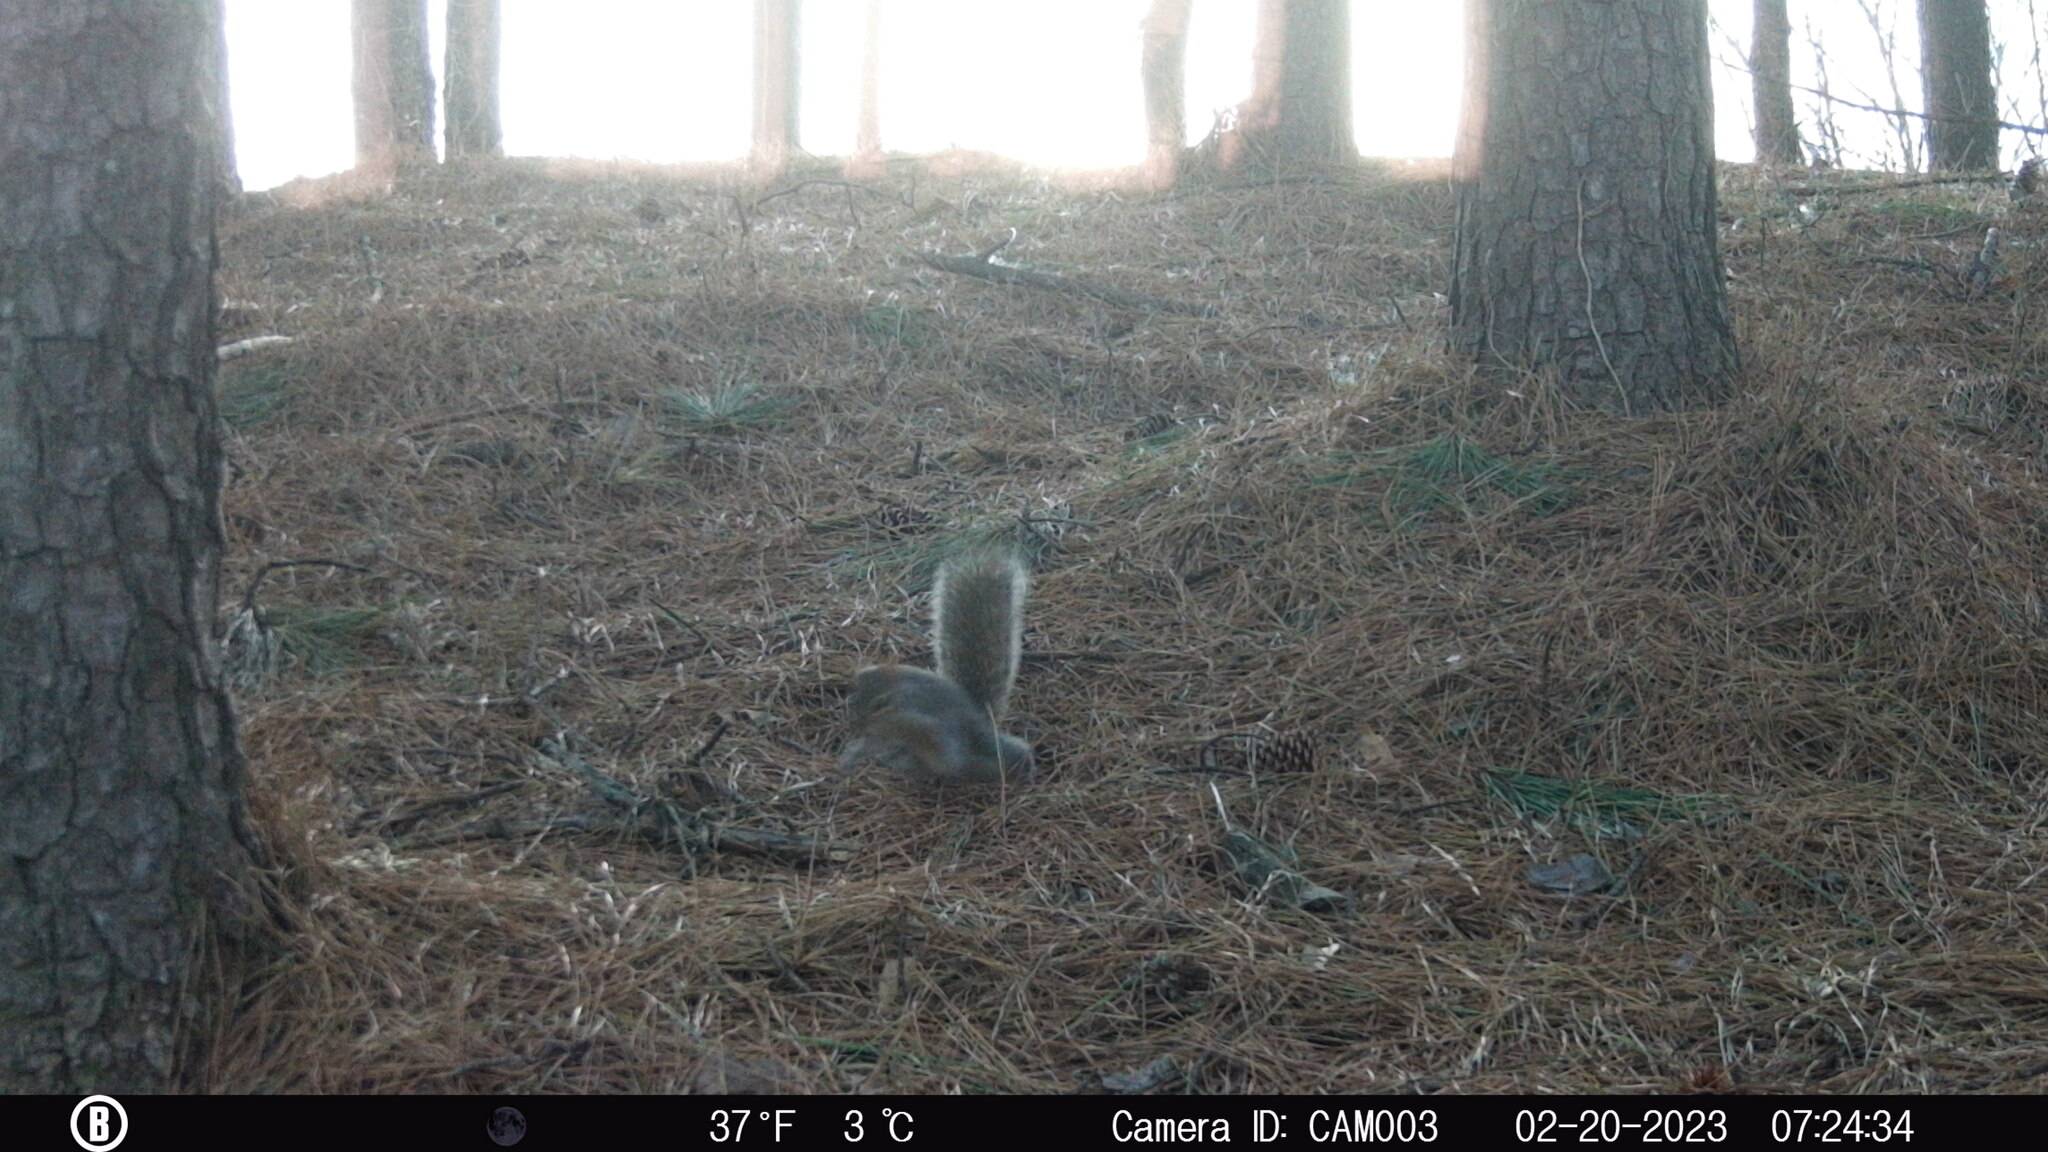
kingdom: Animalia
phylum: Chordata
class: Mammalia
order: Rodentia
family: Sciuridae
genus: Sciurus
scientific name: Sciurus carolinensis
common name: Eastern gray squirrel
